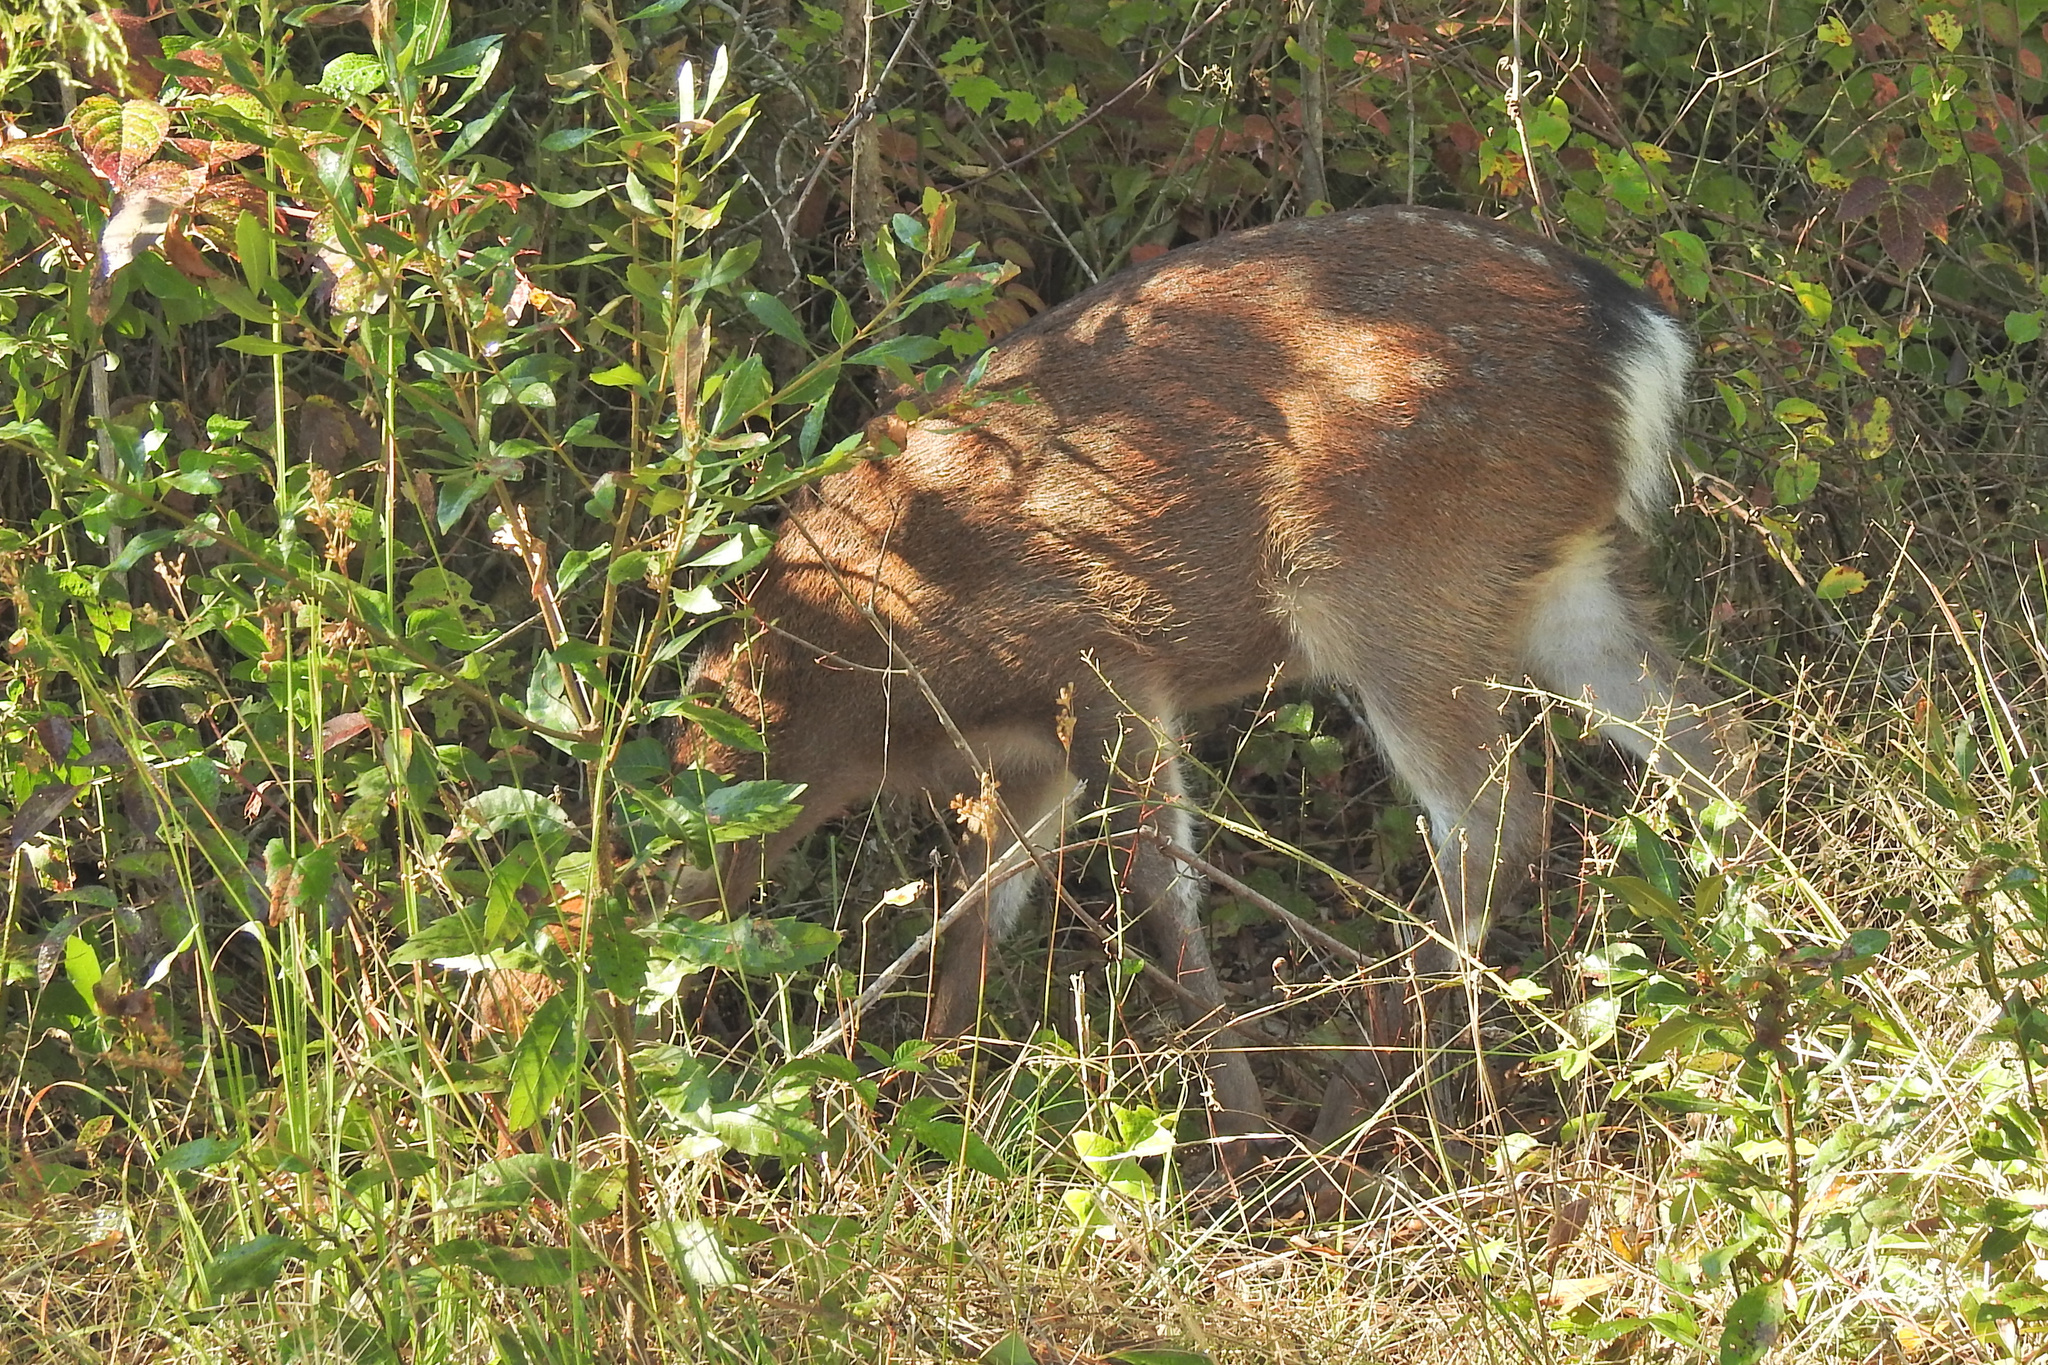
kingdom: Animalia
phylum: Chordata
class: Mammalia
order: Artiodactyla
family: Cervidae
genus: Cervus
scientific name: Cervus nippon
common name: Sika deer
